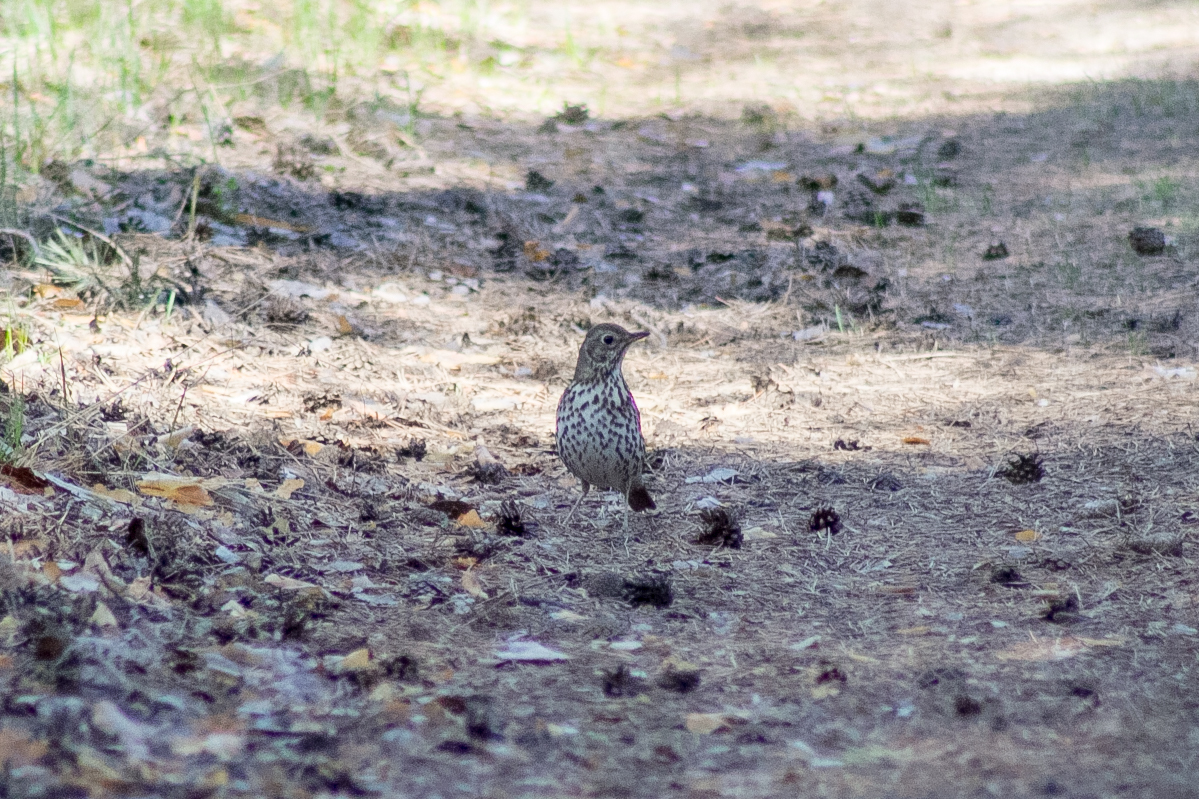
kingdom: Animalia
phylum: Chordata
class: Aves
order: Passeriformes
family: Turdidae
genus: Turdus
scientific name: Turdus philomelos
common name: Song thrush
